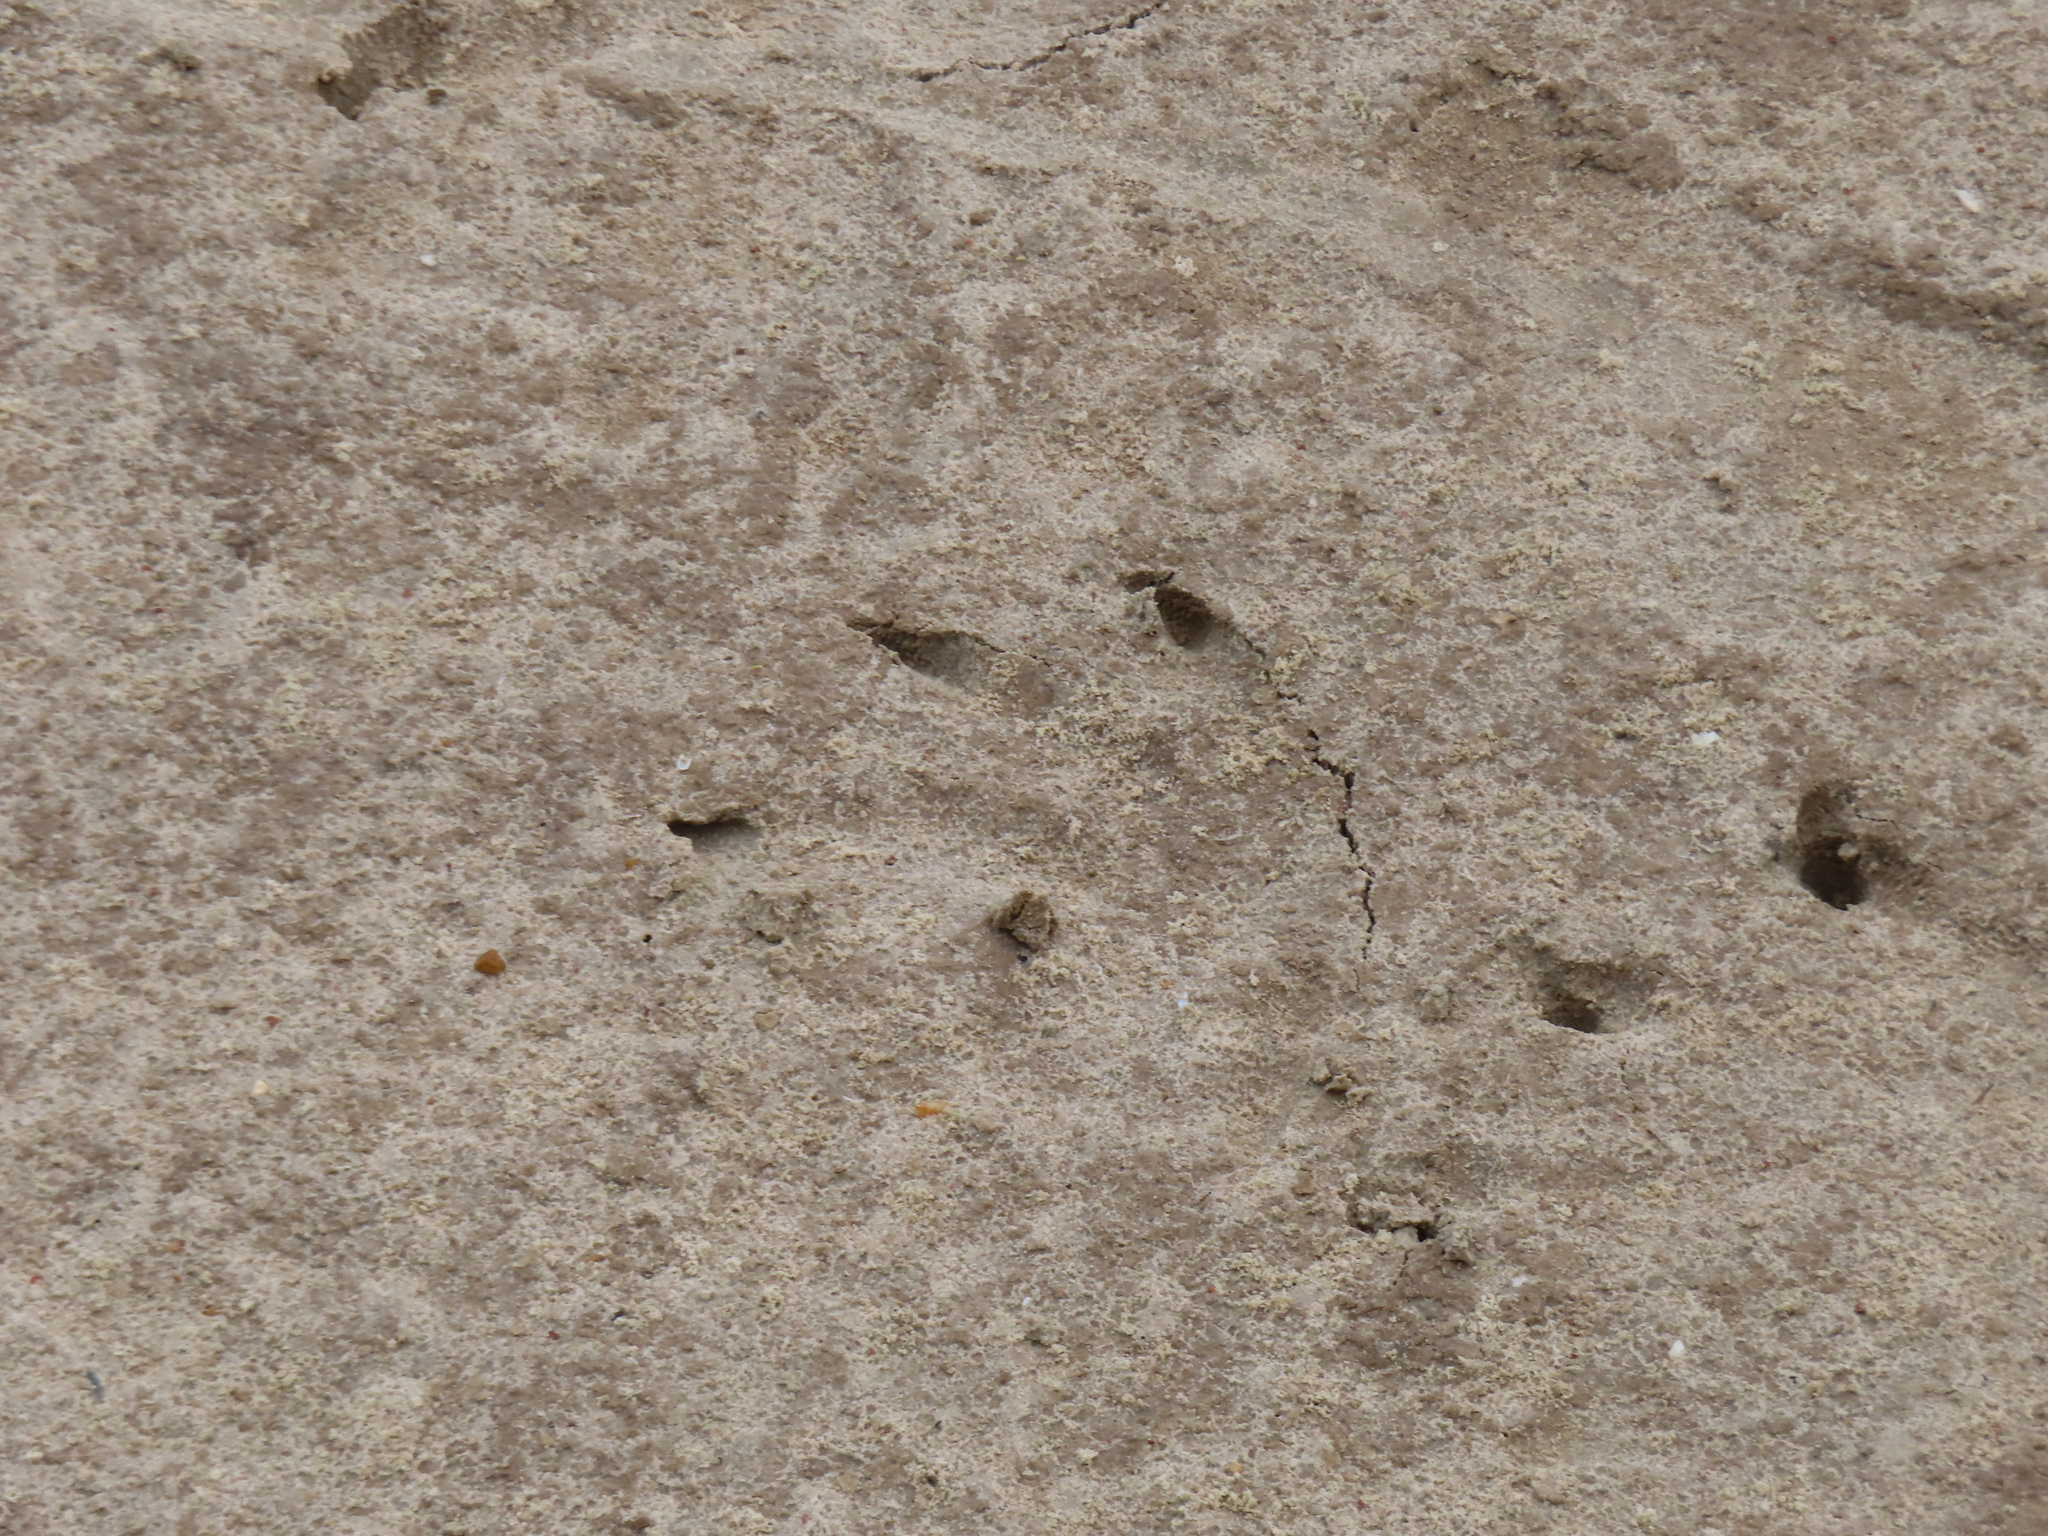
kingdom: Animalia
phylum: Chordata
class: Crocodylia
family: Alligatoridae
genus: Alligator
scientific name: Alligator mississippiensis
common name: American alligator
